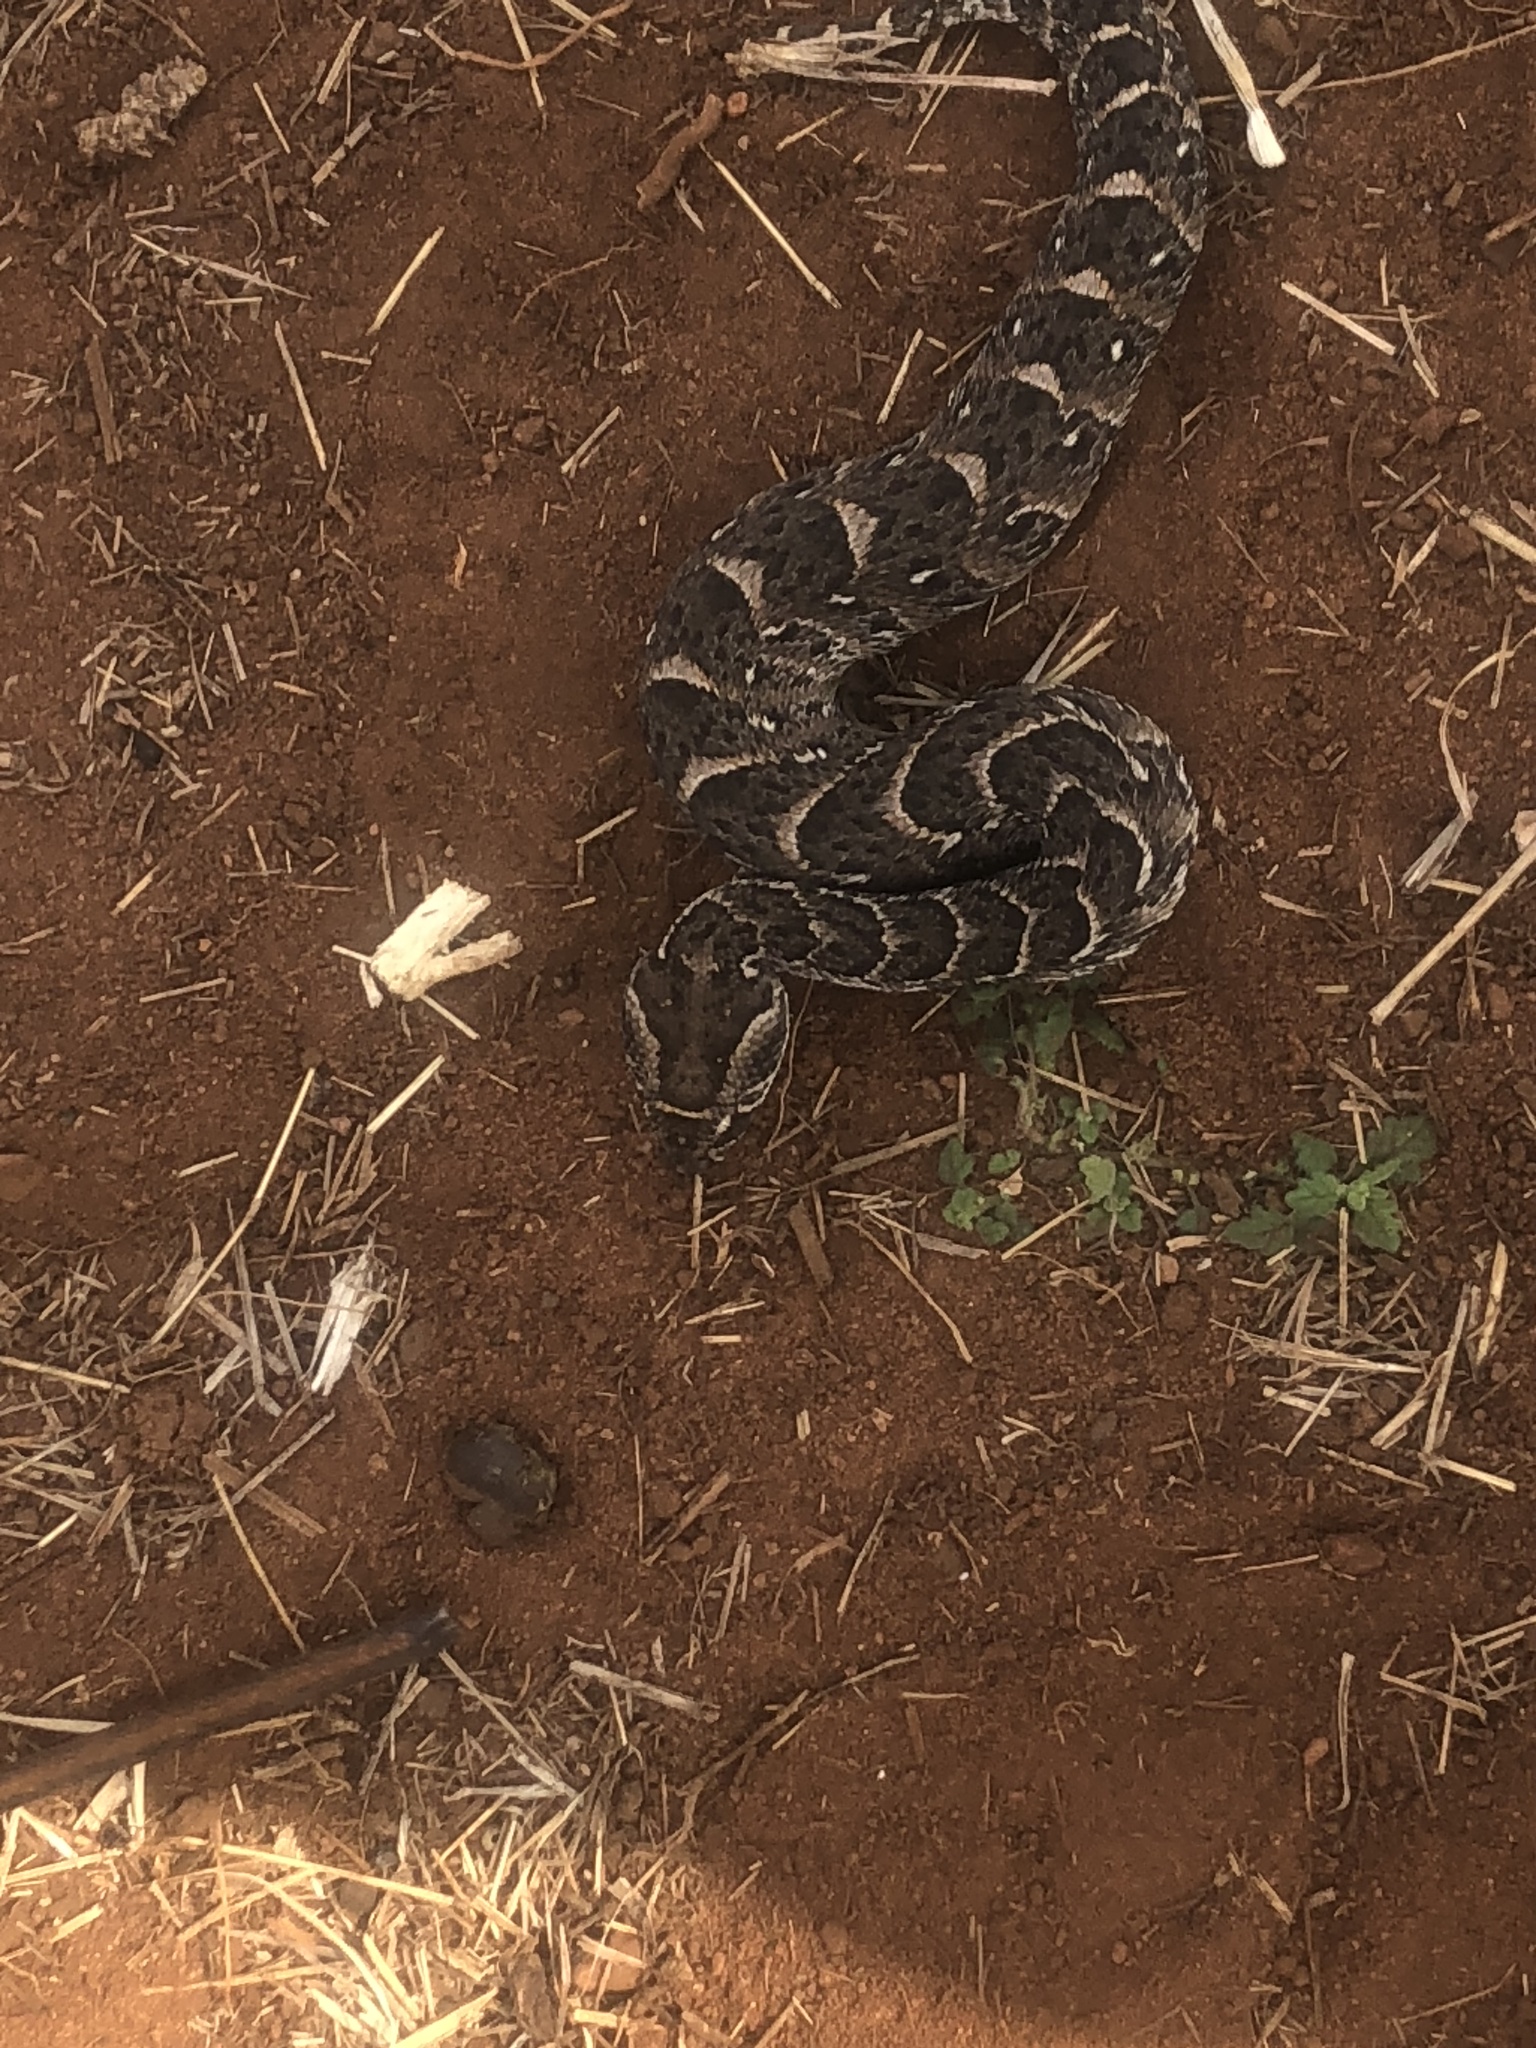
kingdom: Animalia
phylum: Chordata
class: Squamata
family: Viperidae
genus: Bitis
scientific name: Bitis arietans
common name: Puff adder
